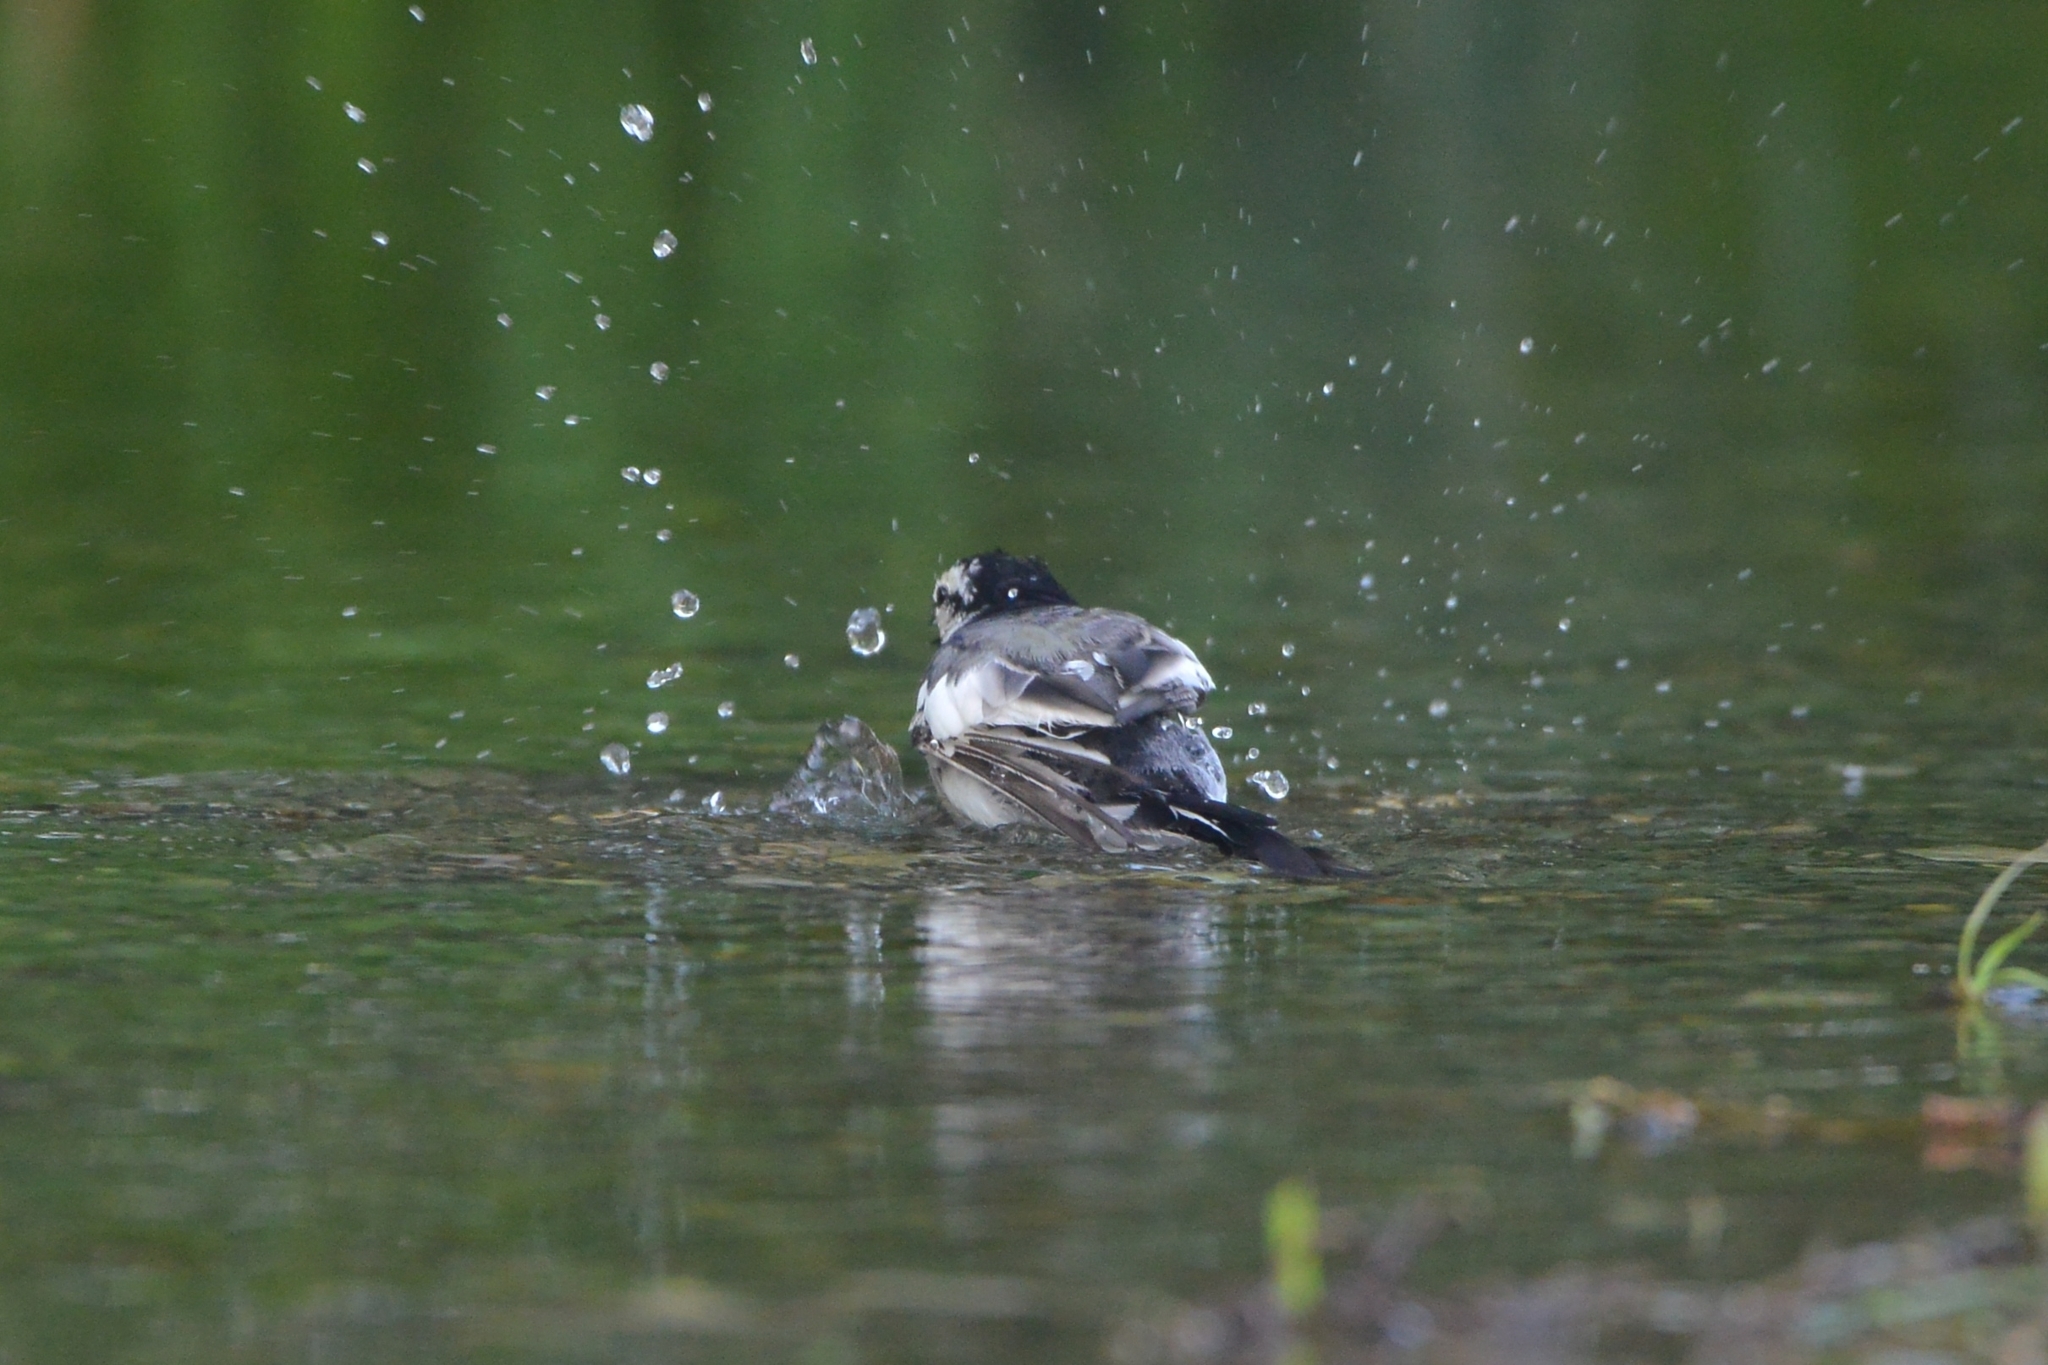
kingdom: Animalia
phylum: Chordata
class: Aves
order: Passeriformes
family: Motacillidae
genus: Motacilla
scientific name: Motacilla alba
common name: White wagtail
